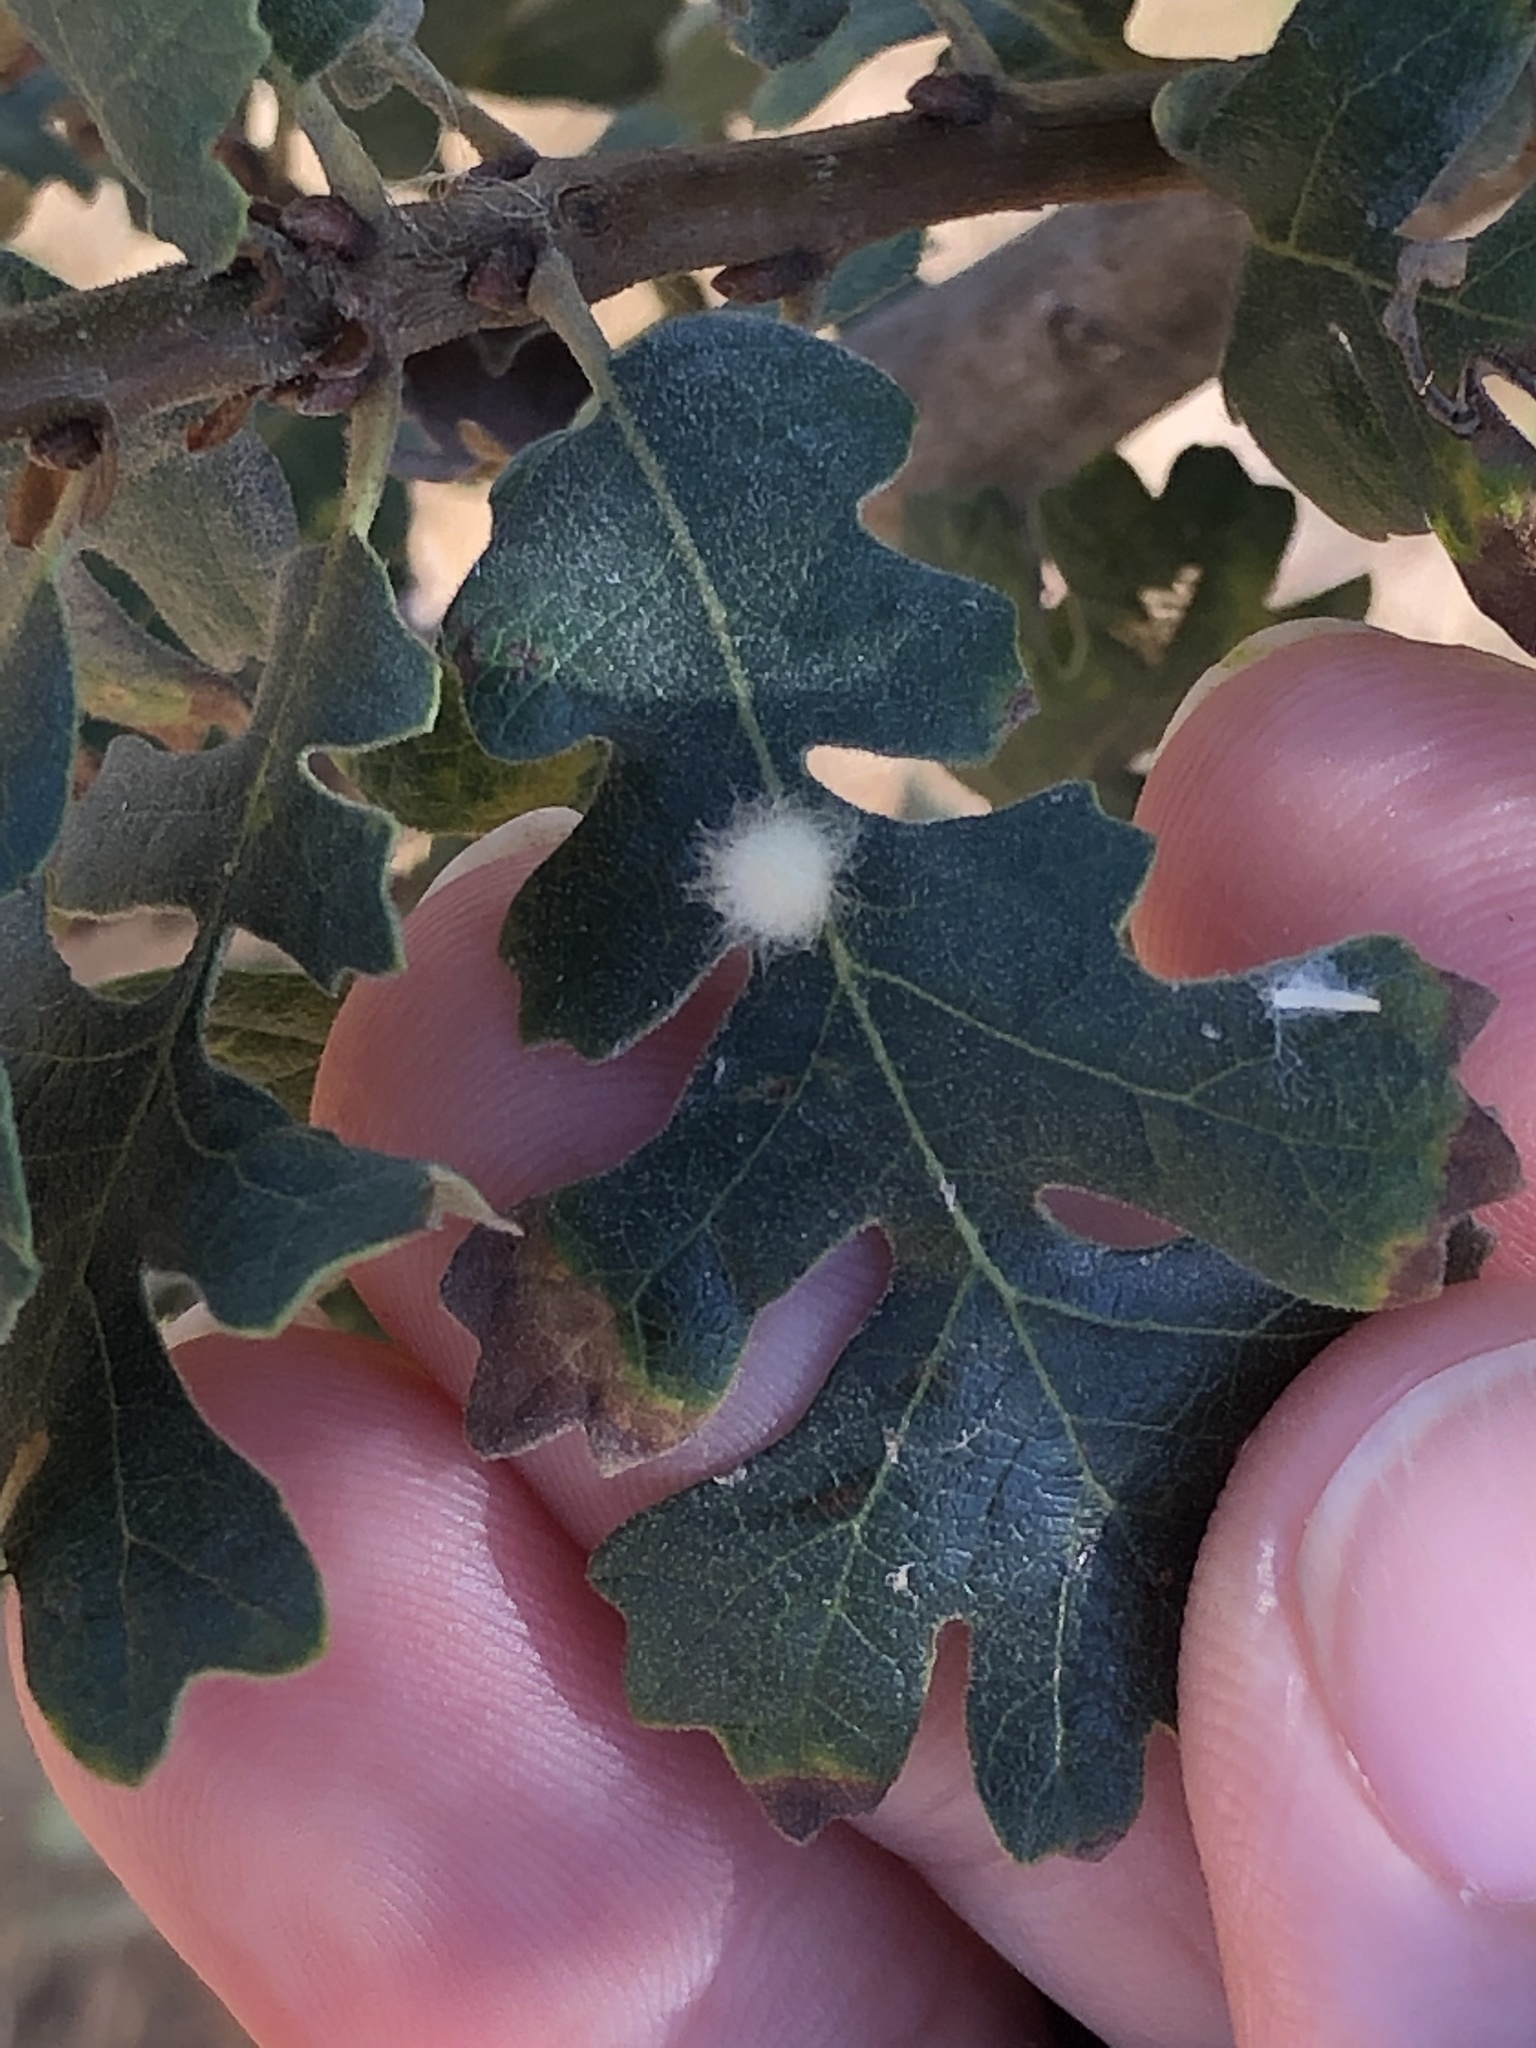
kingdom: Animalia
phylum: Arthropoda
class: Insecta
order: Hymenoptera
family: Cynipidae
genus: Andricus
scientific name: Andricus Druon fullawayi
